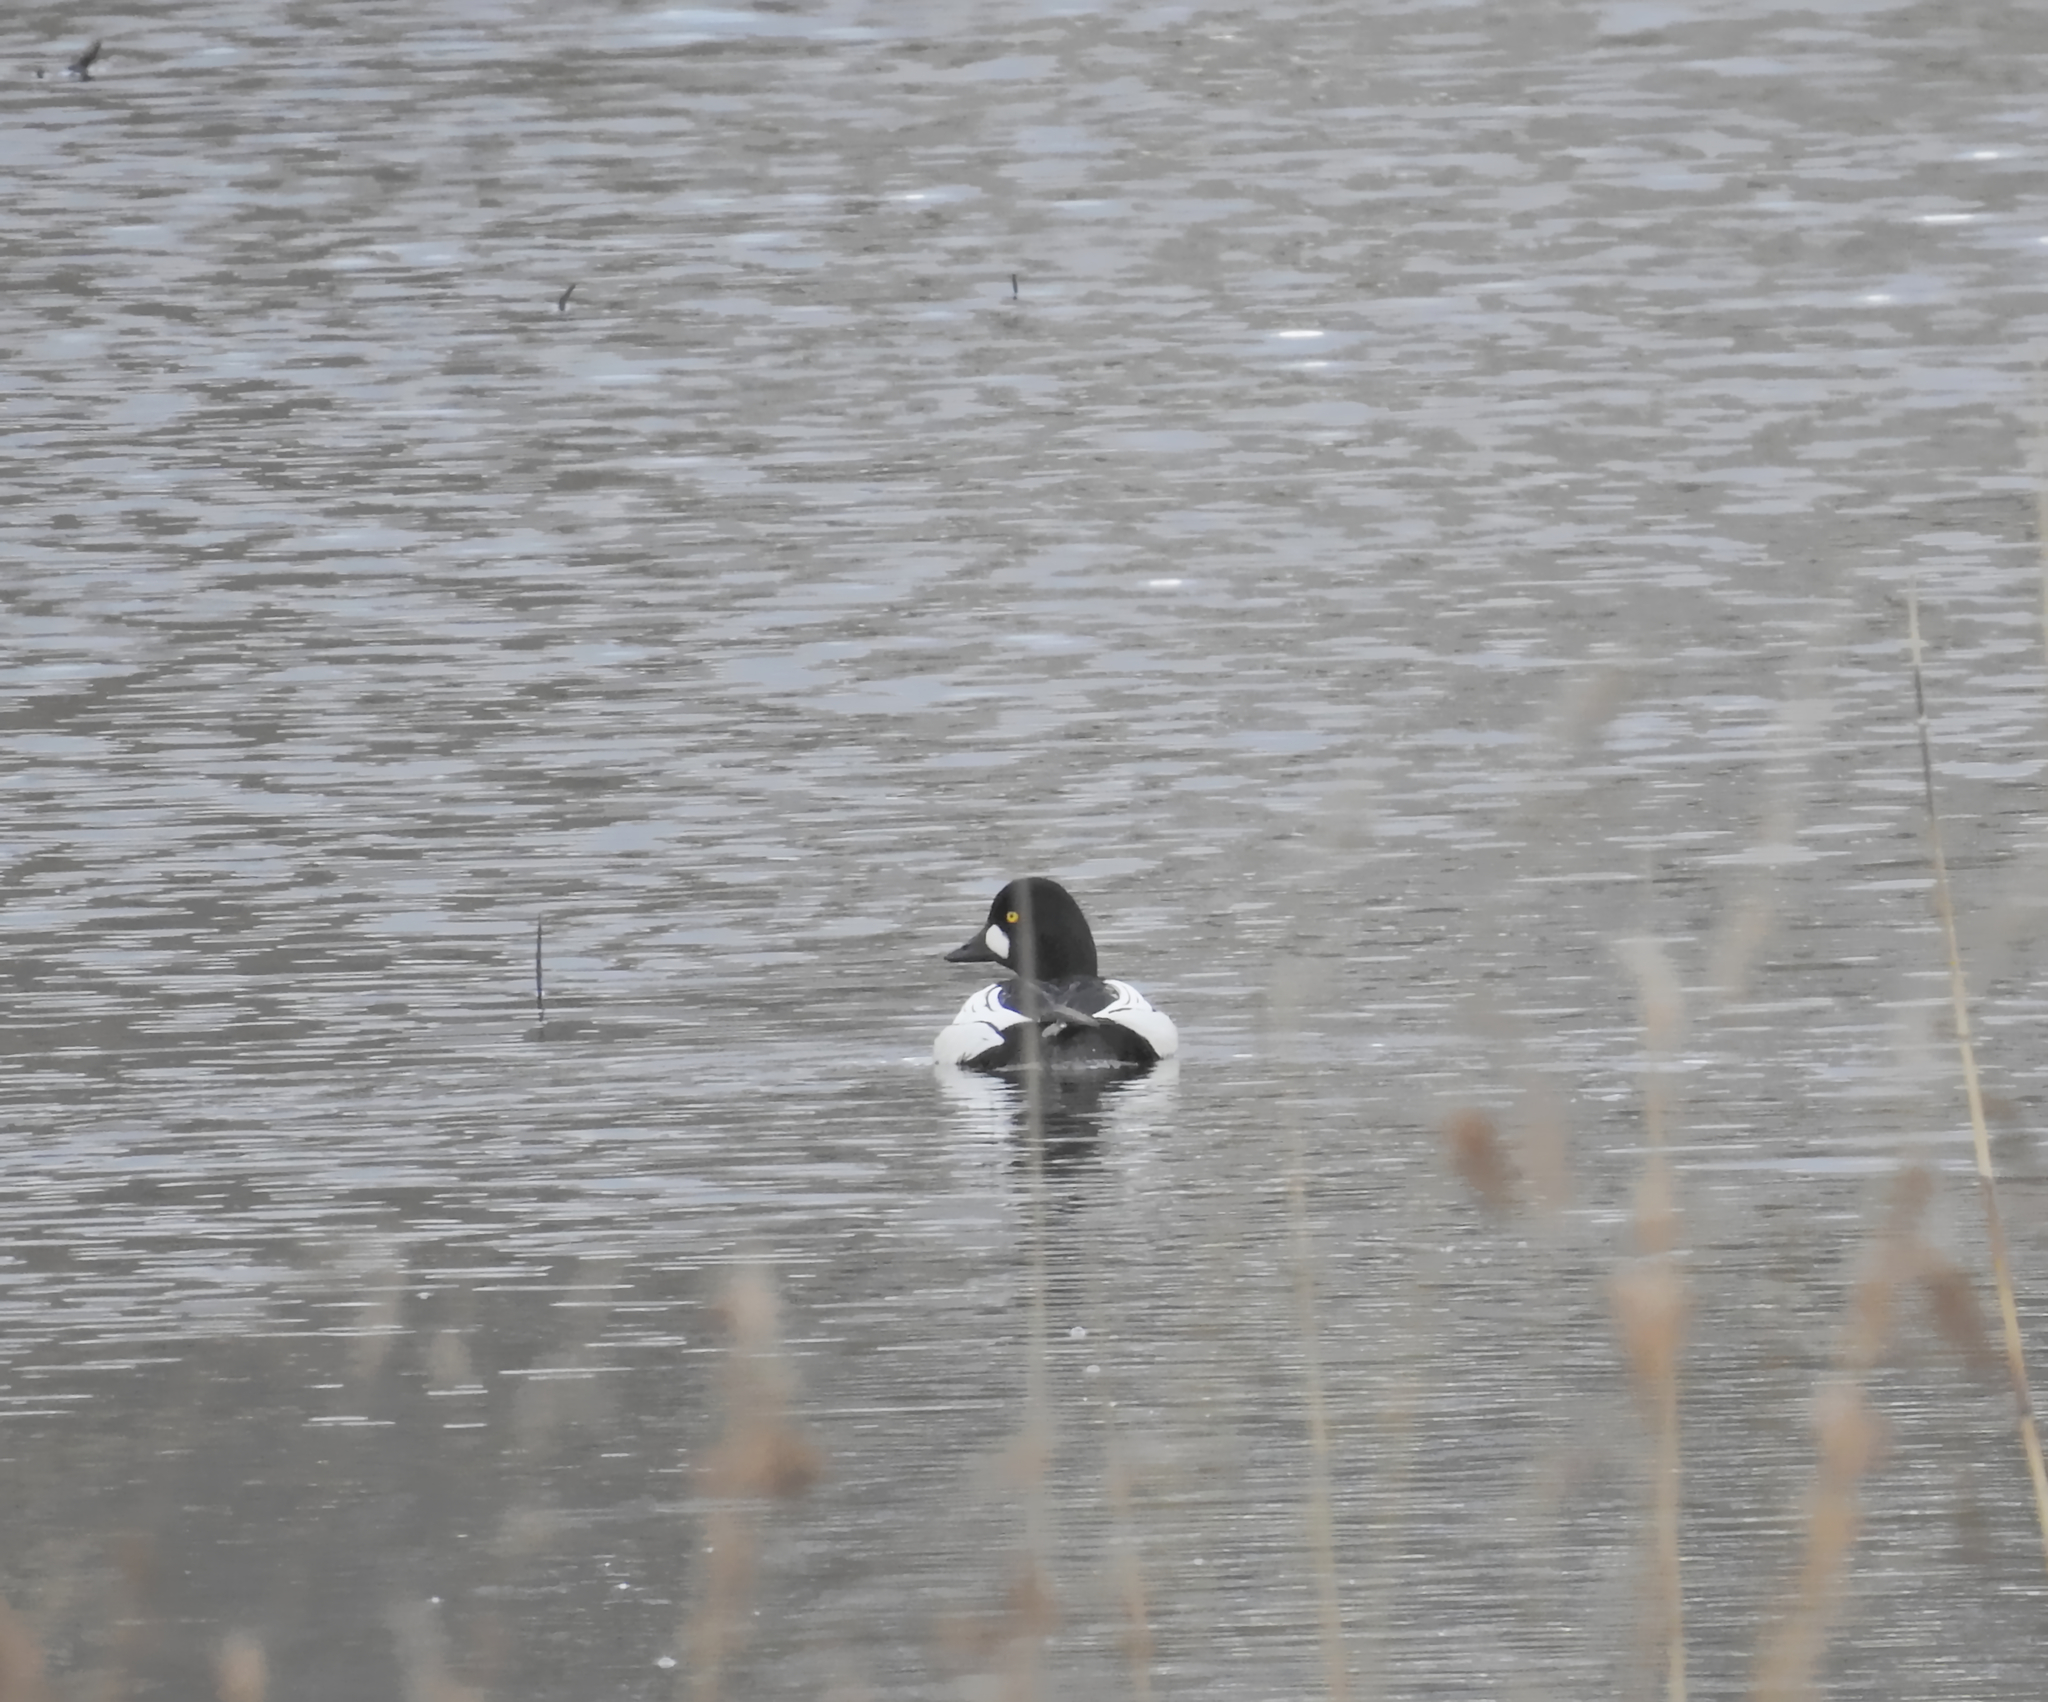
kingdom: Animalia
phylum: Chordata
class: Aves
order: Anseriformes
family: Anatidae
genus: Bucephala
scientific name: Bucephala clangula
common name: Common goldeneye
